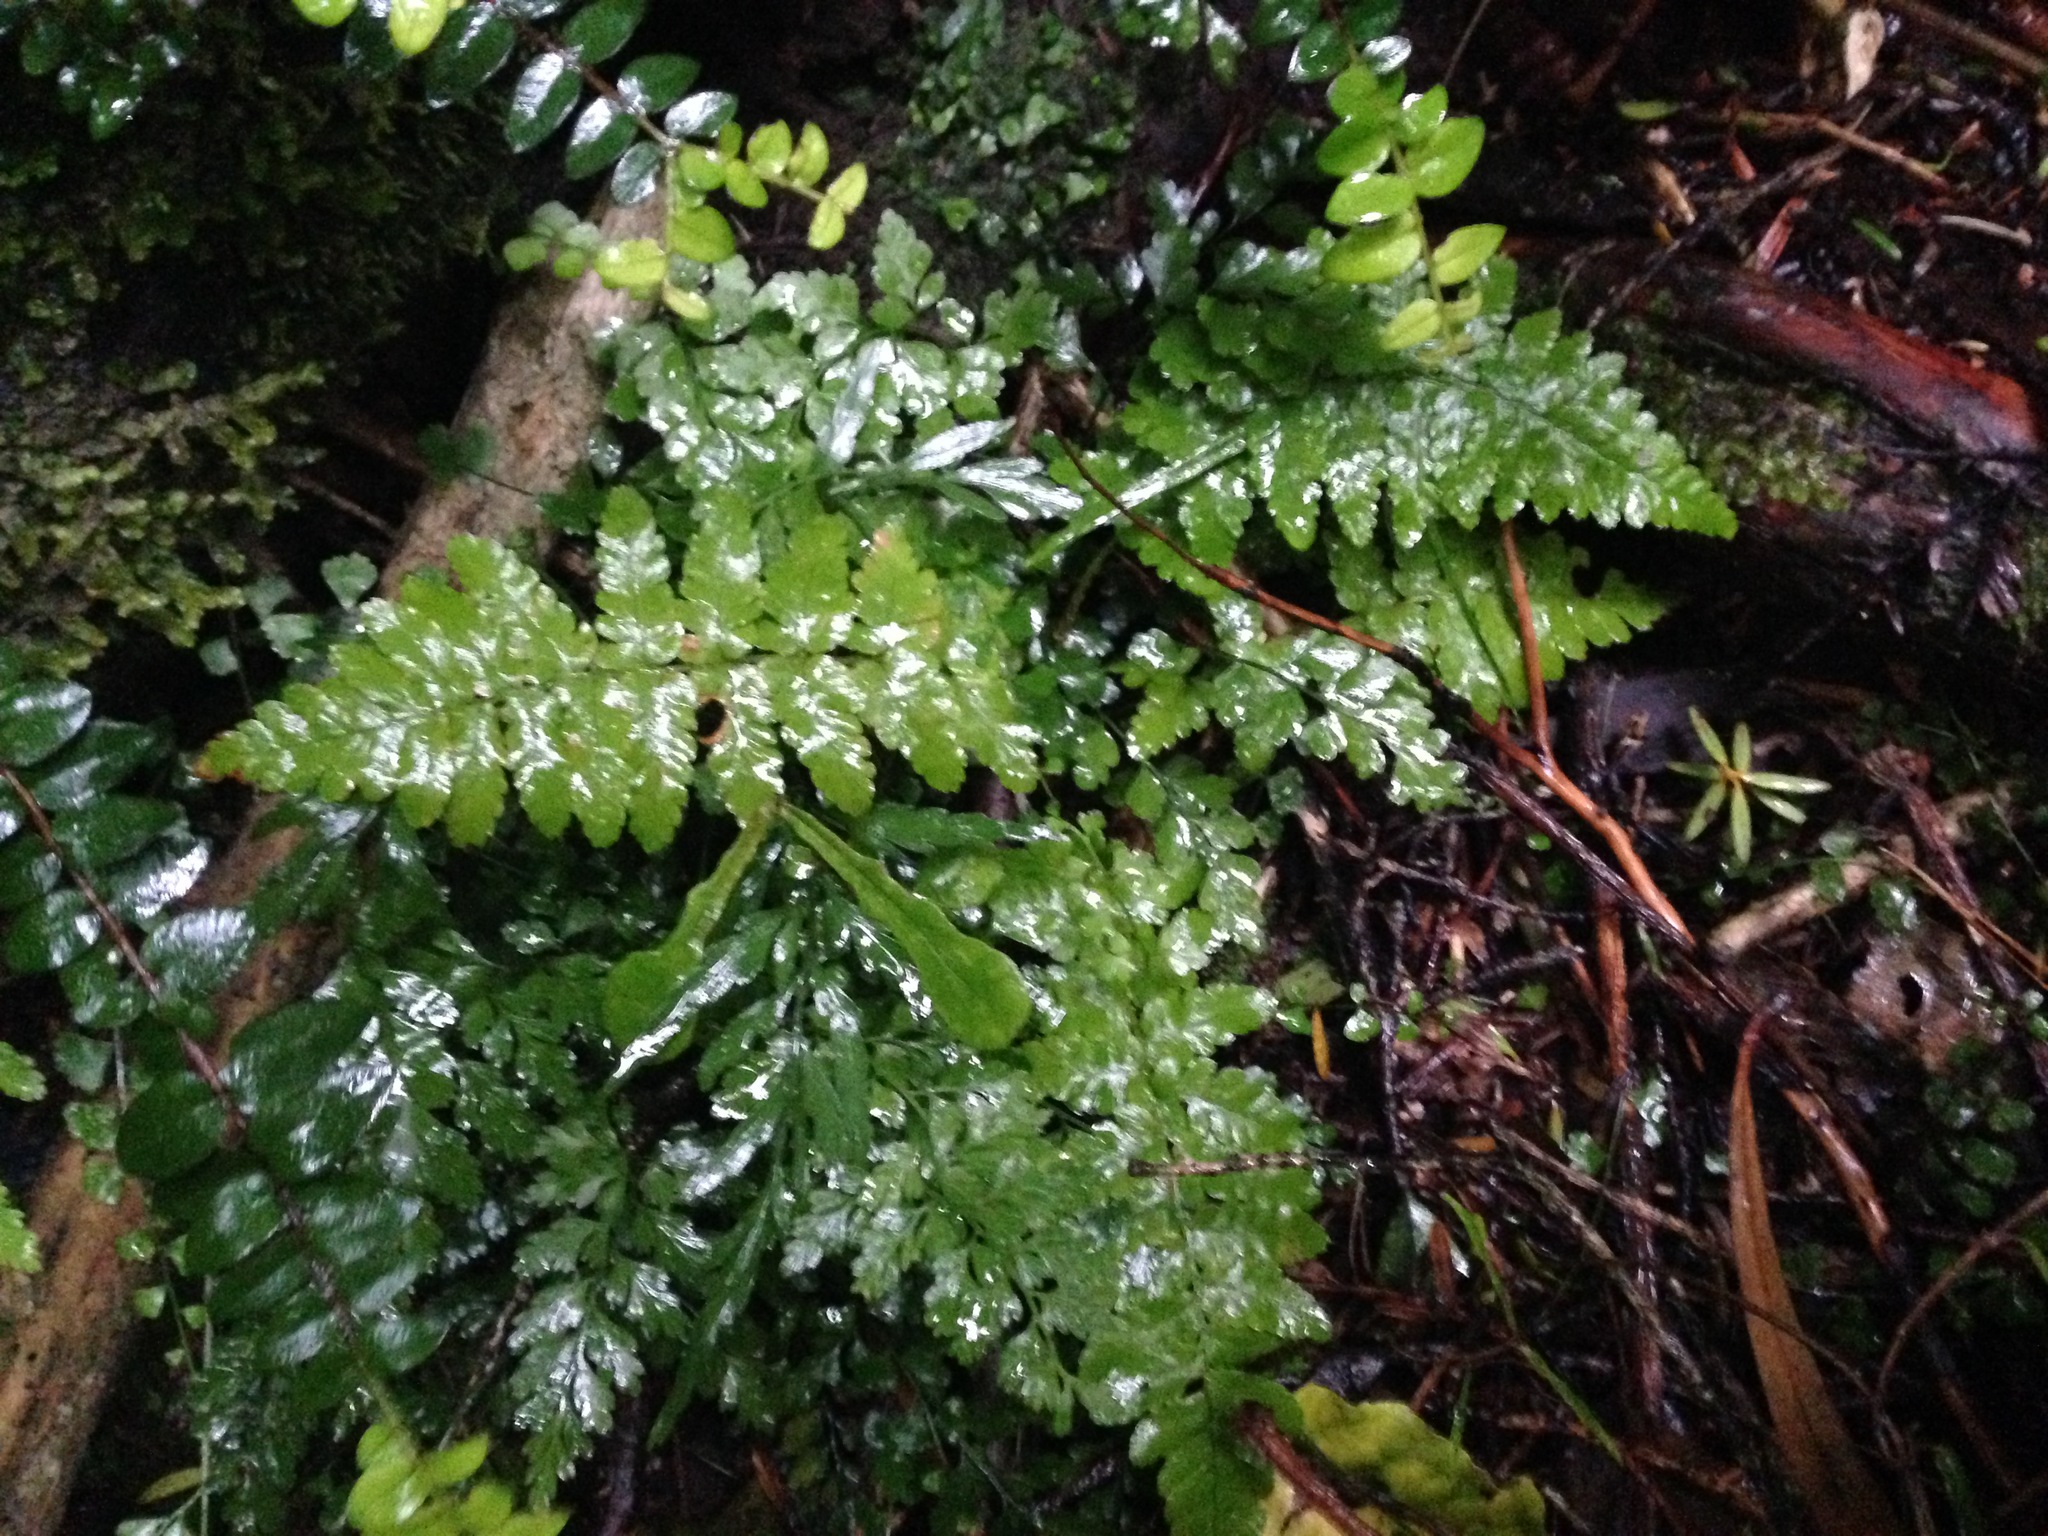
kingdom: Plantae
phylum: Tracheophyta
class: Polypodiopsida
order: Polypodiales
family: Dryopteridaceae
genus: Dryopteris
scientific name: Dryopteris filix-mas
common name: Male fern
